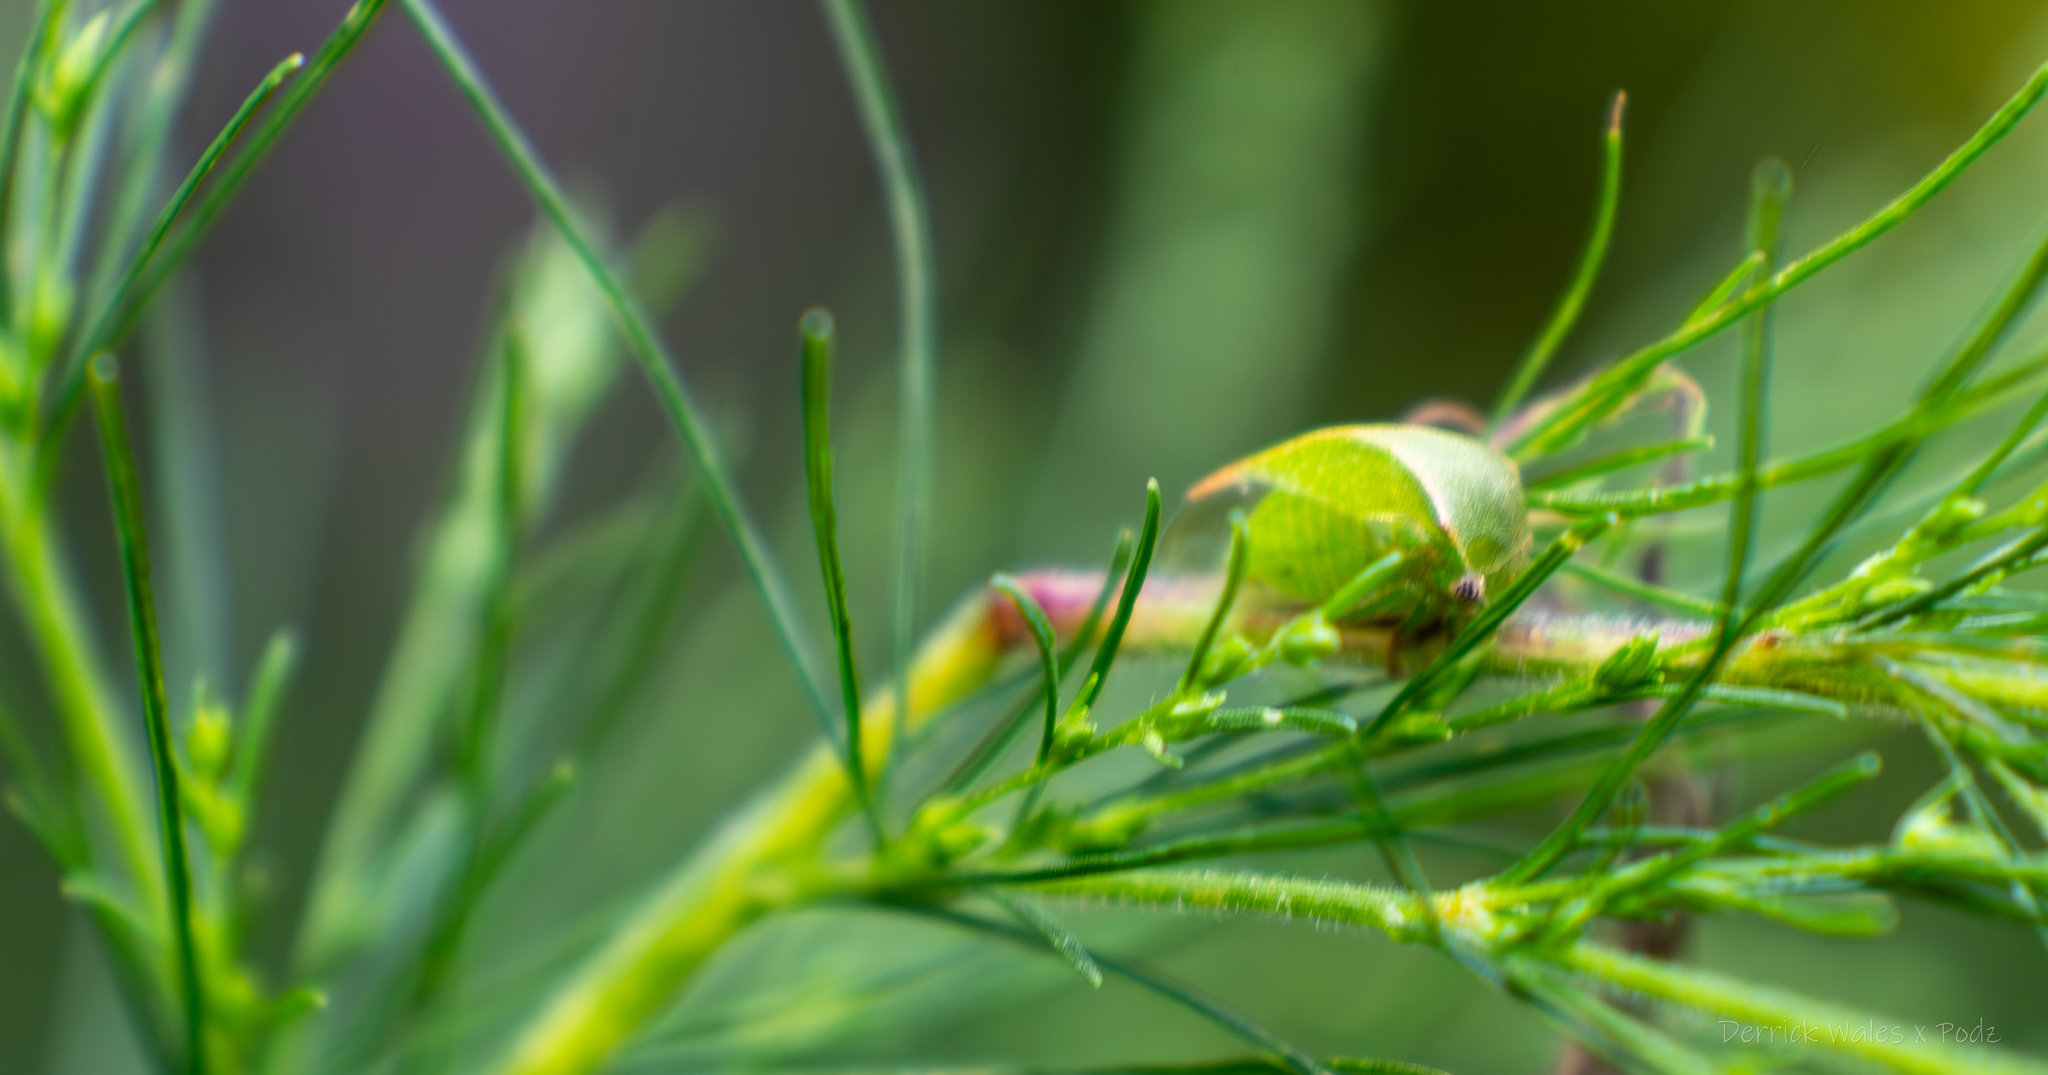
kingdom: Animalia
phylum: Arthropoda
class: Insecta
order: Hemiptera
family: Membracidae
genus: Spissistilus
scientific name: Spissistilus festina
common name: Membracid bug
